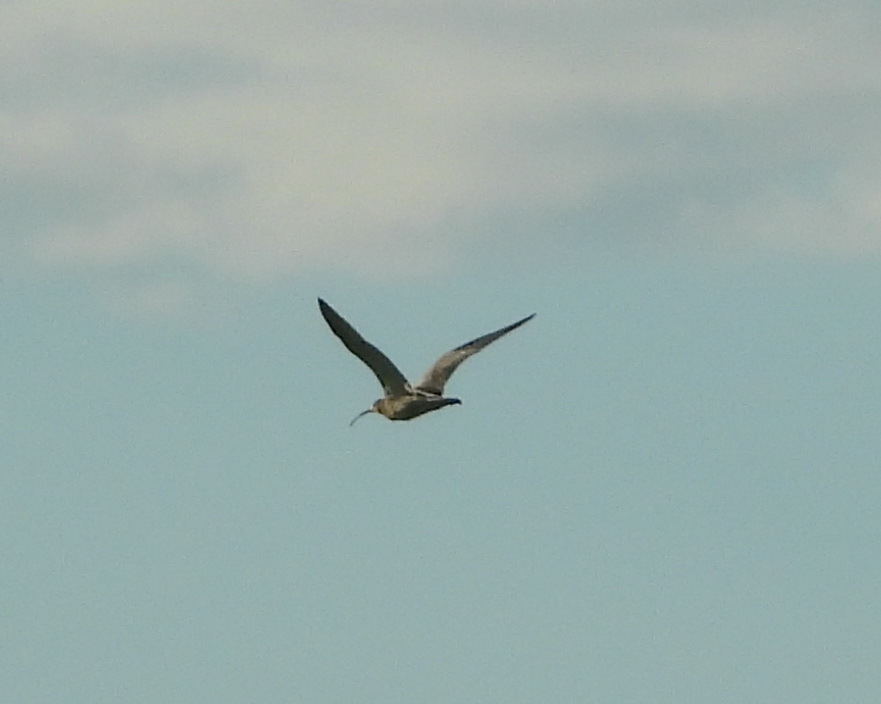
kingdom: Animalia
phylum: Chordata
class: Aves
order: Charadriiformes
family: Scolopacidae
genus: Numenius
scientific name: Numenius arquata
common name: Eurasian curlew
